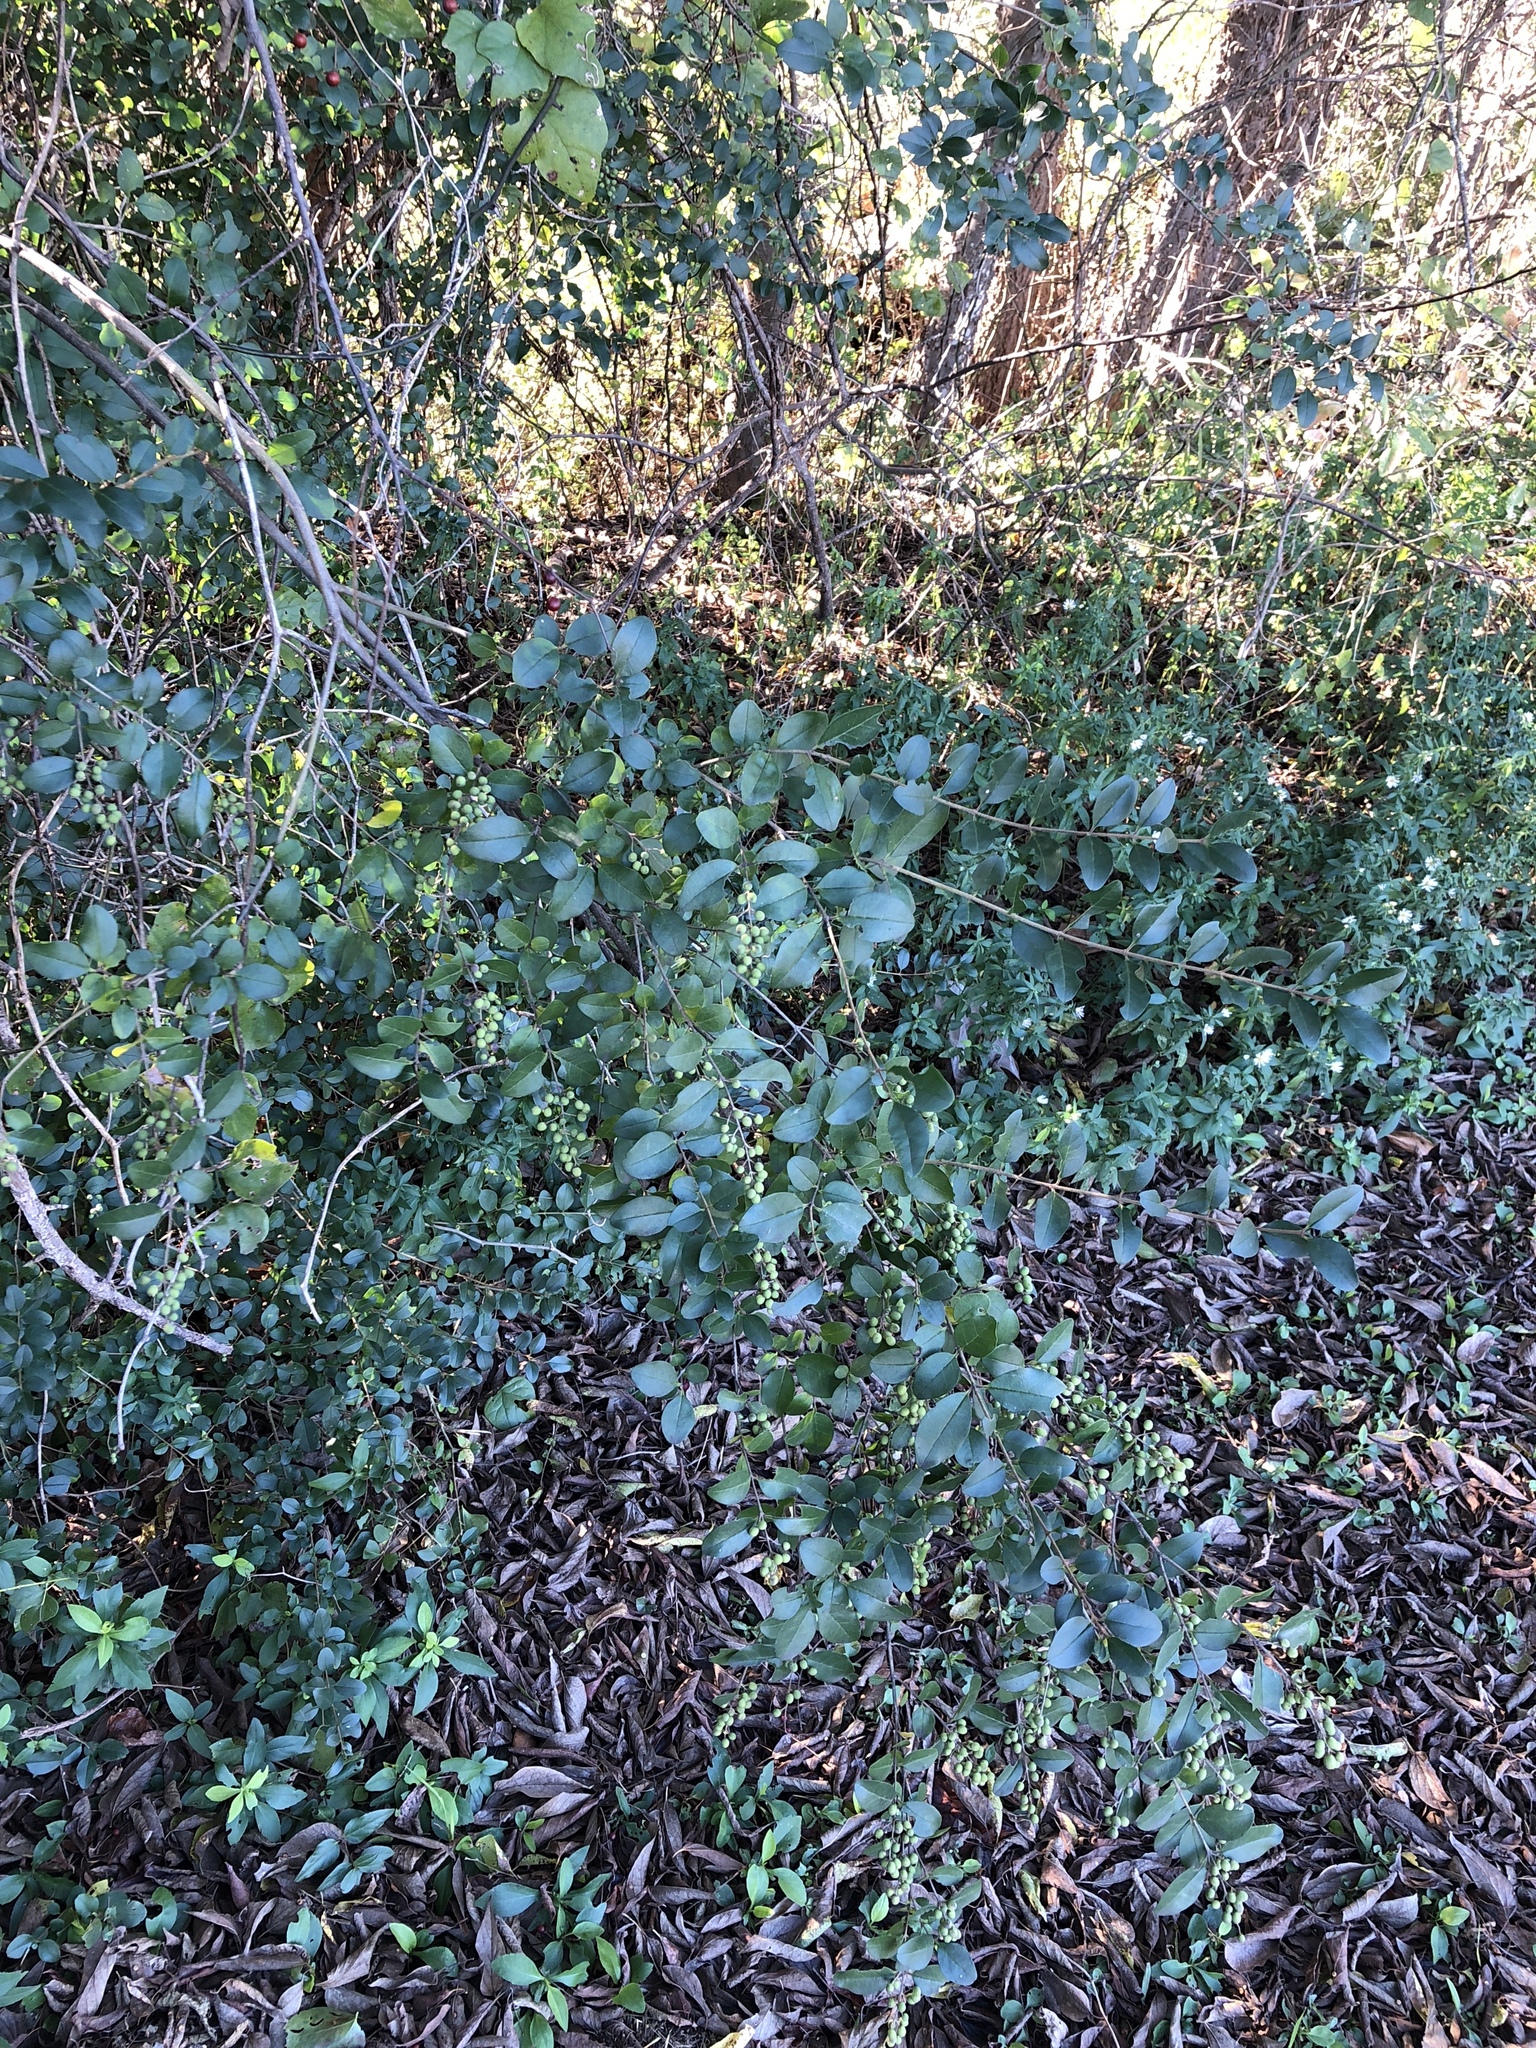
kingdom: Plantae
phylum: Tracheophyta
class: Magnoliopsida
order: Lamiales
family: Oleaceae
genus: Ligustrum
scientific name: Ligustrum sinense
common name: Chinese privet
